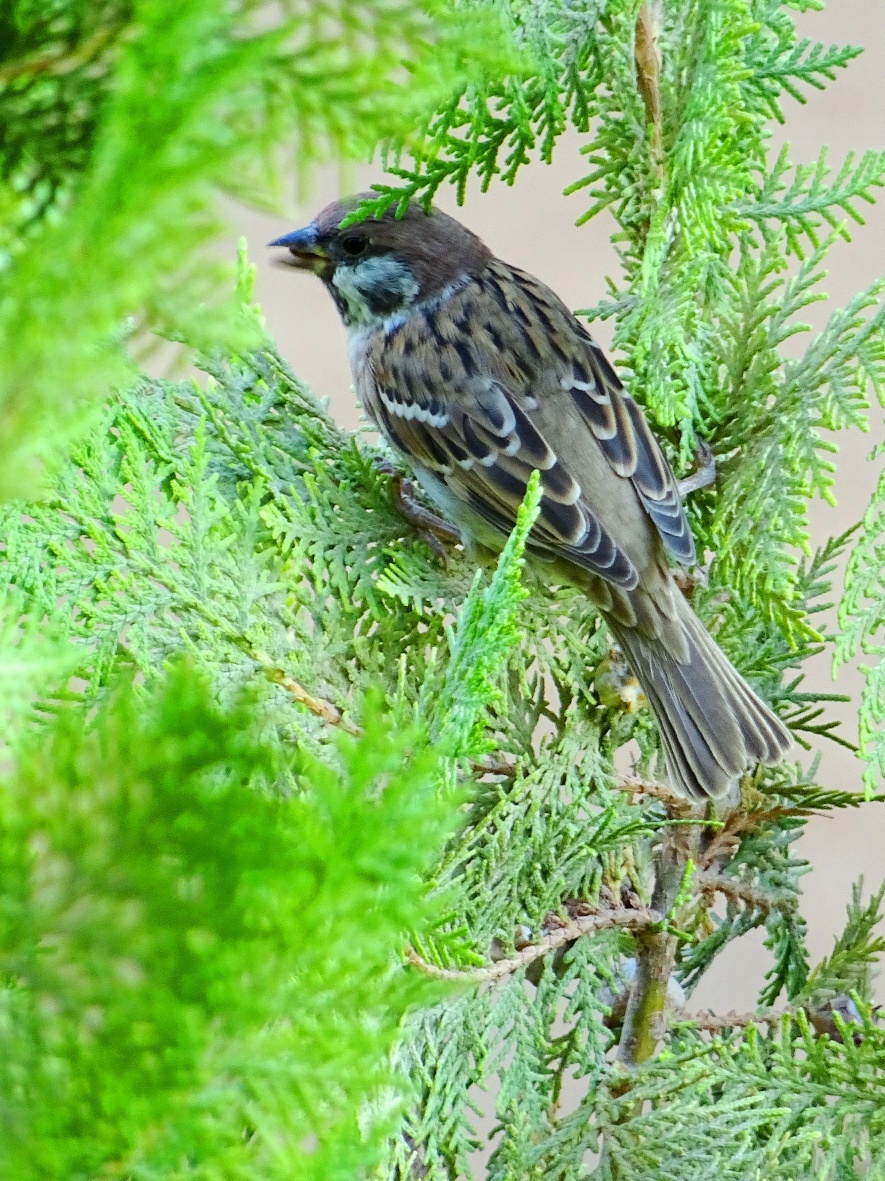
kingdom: Animalia
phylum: Chordata
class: Aves
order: Passeriformes
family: Passeridae
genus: Passer
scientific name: Passer montanus
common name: Eurasian tree sparrow
